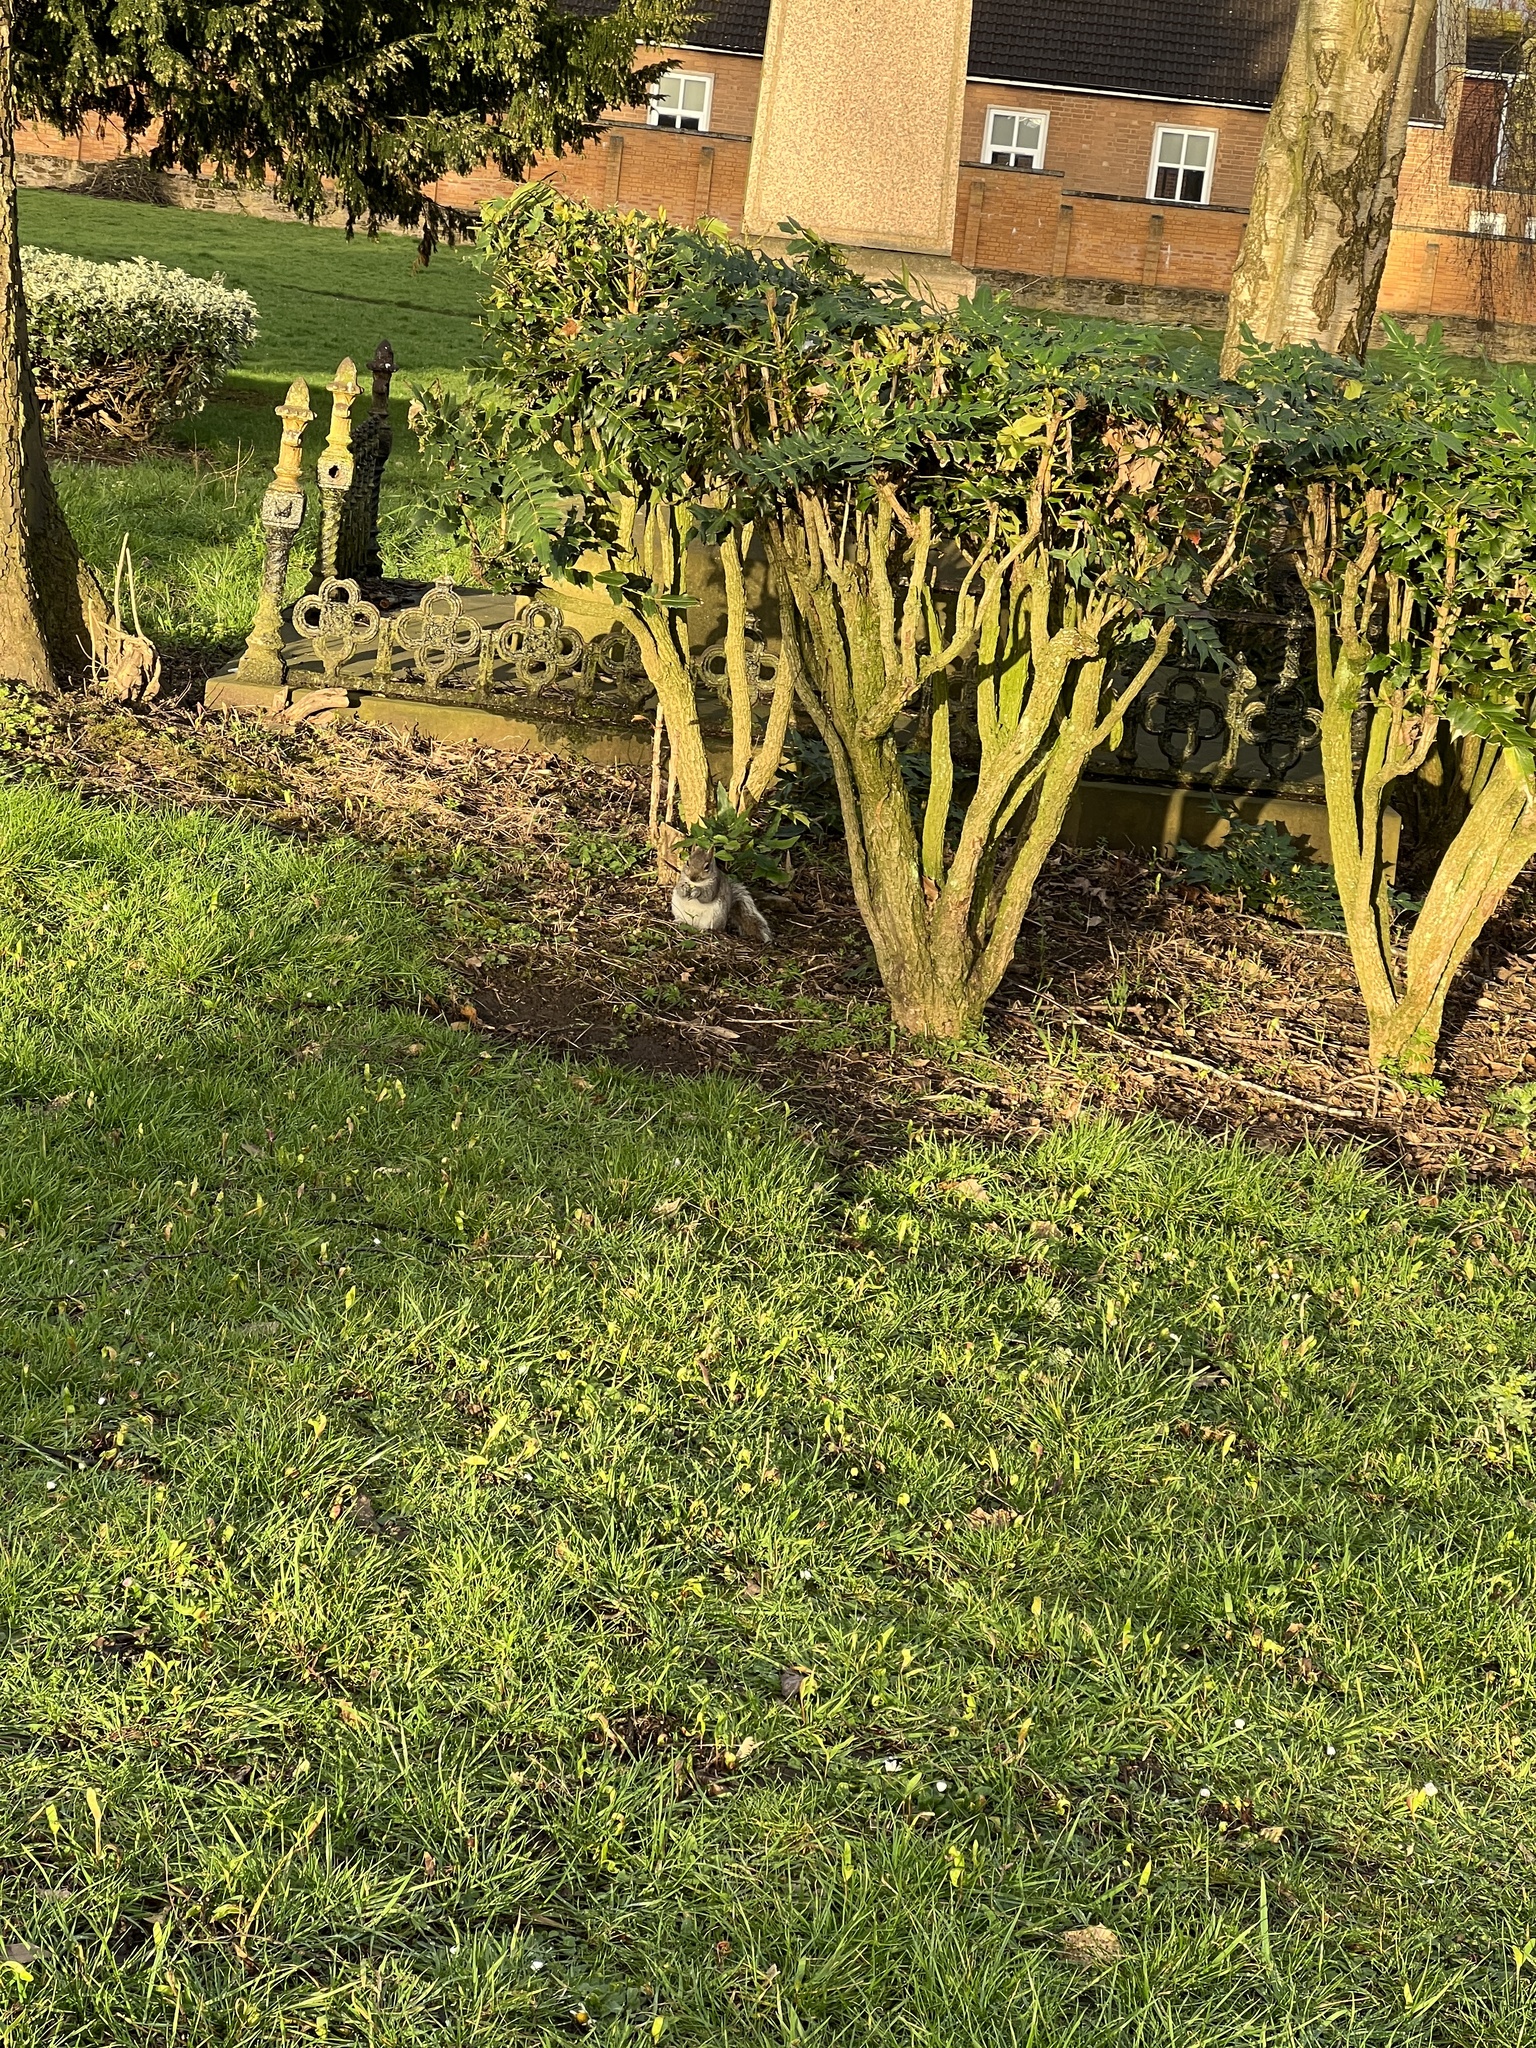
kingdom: Animalia
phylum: Chordata
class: Mammalia
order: Rodentia
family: Sciuridae
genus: Sciurus
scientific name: Sciurus carolinensis
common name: Eastern gray squirrel
